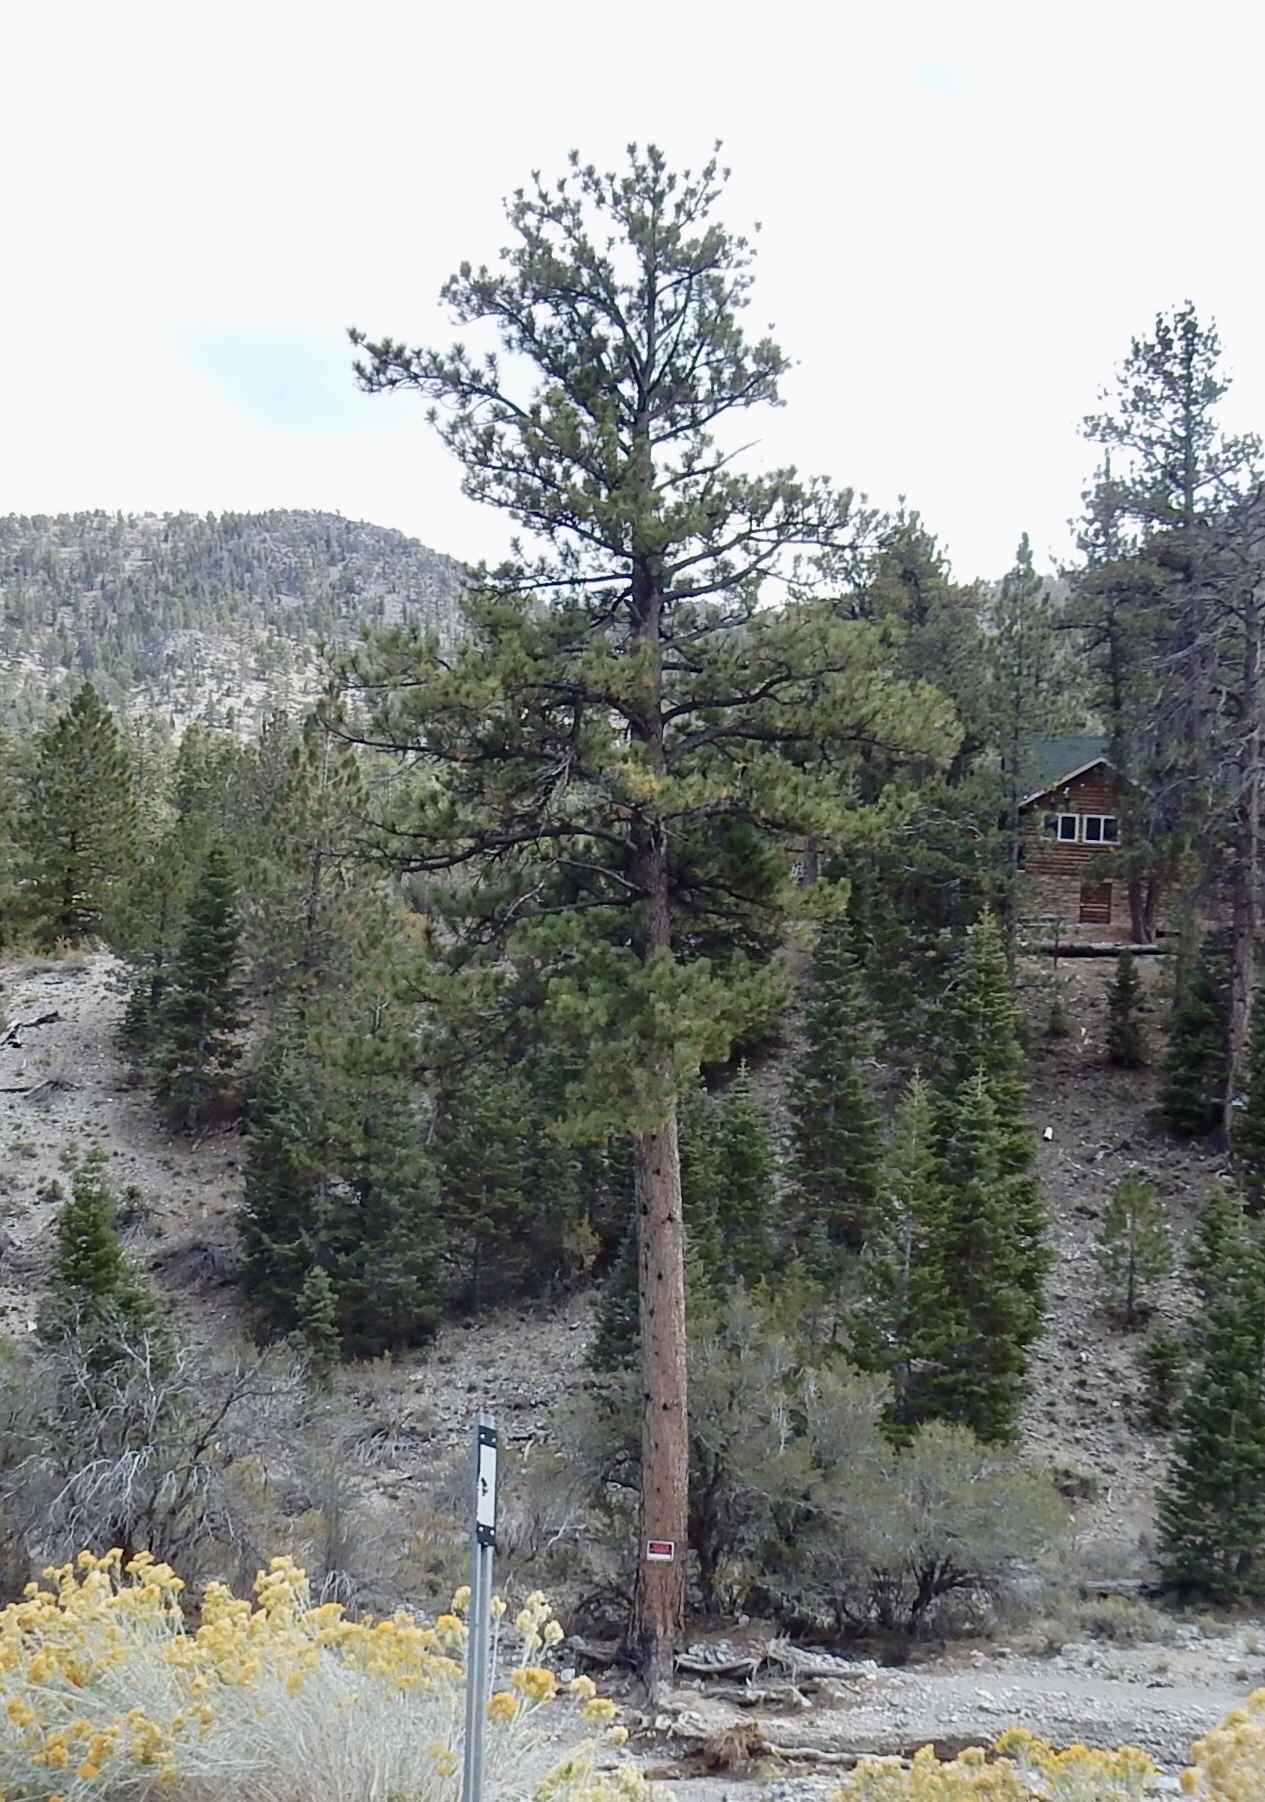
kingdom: Plantae
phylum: Tracheophyta
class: Pinopsida
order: Pinales
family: Pinaceae
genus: Pinus
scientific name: Pinus ponderosa
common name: Western yellow-pine
